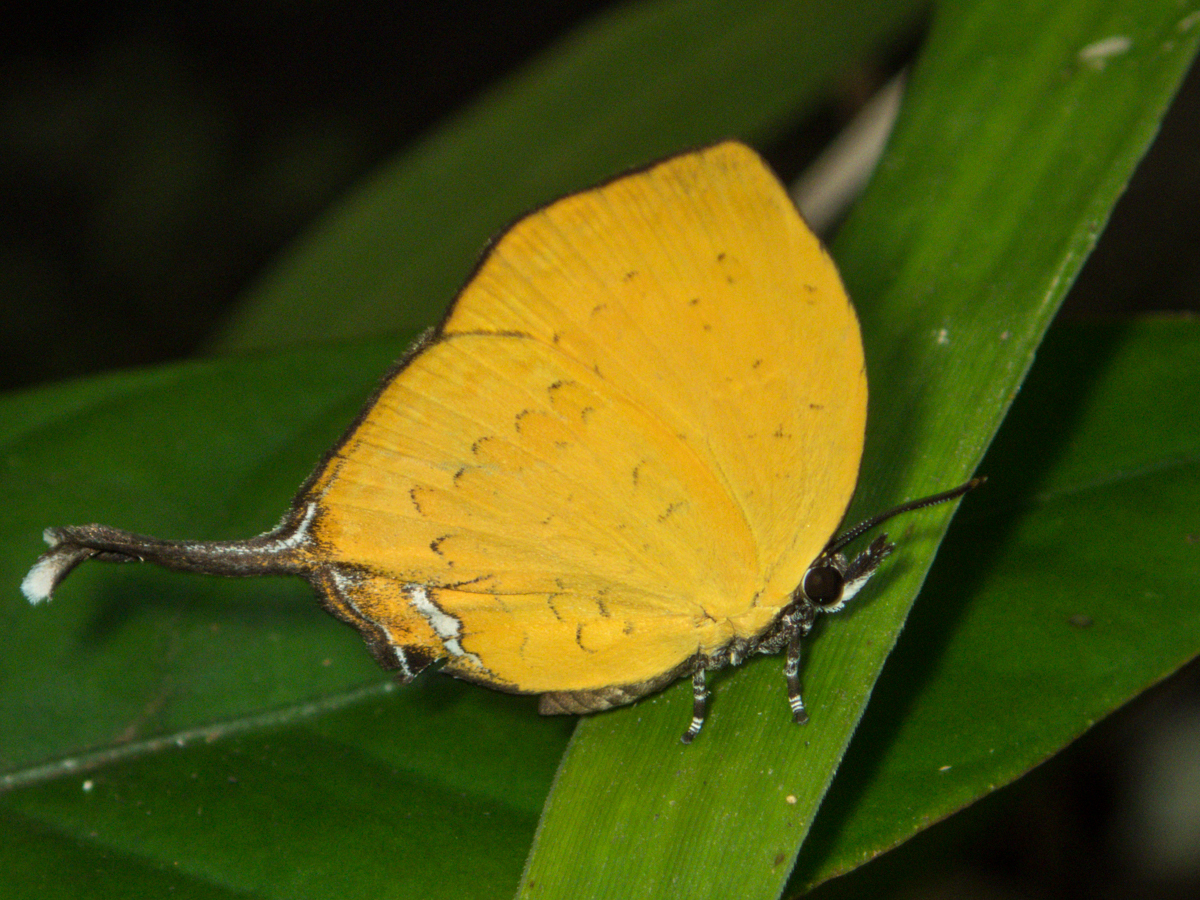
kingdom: Animalia
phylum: Arthropoda
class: Insecta
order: Lepidoptera
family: Lycaenidae
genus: Yasoda
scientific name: Yasoda tripunctata
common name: Branded yamfly
